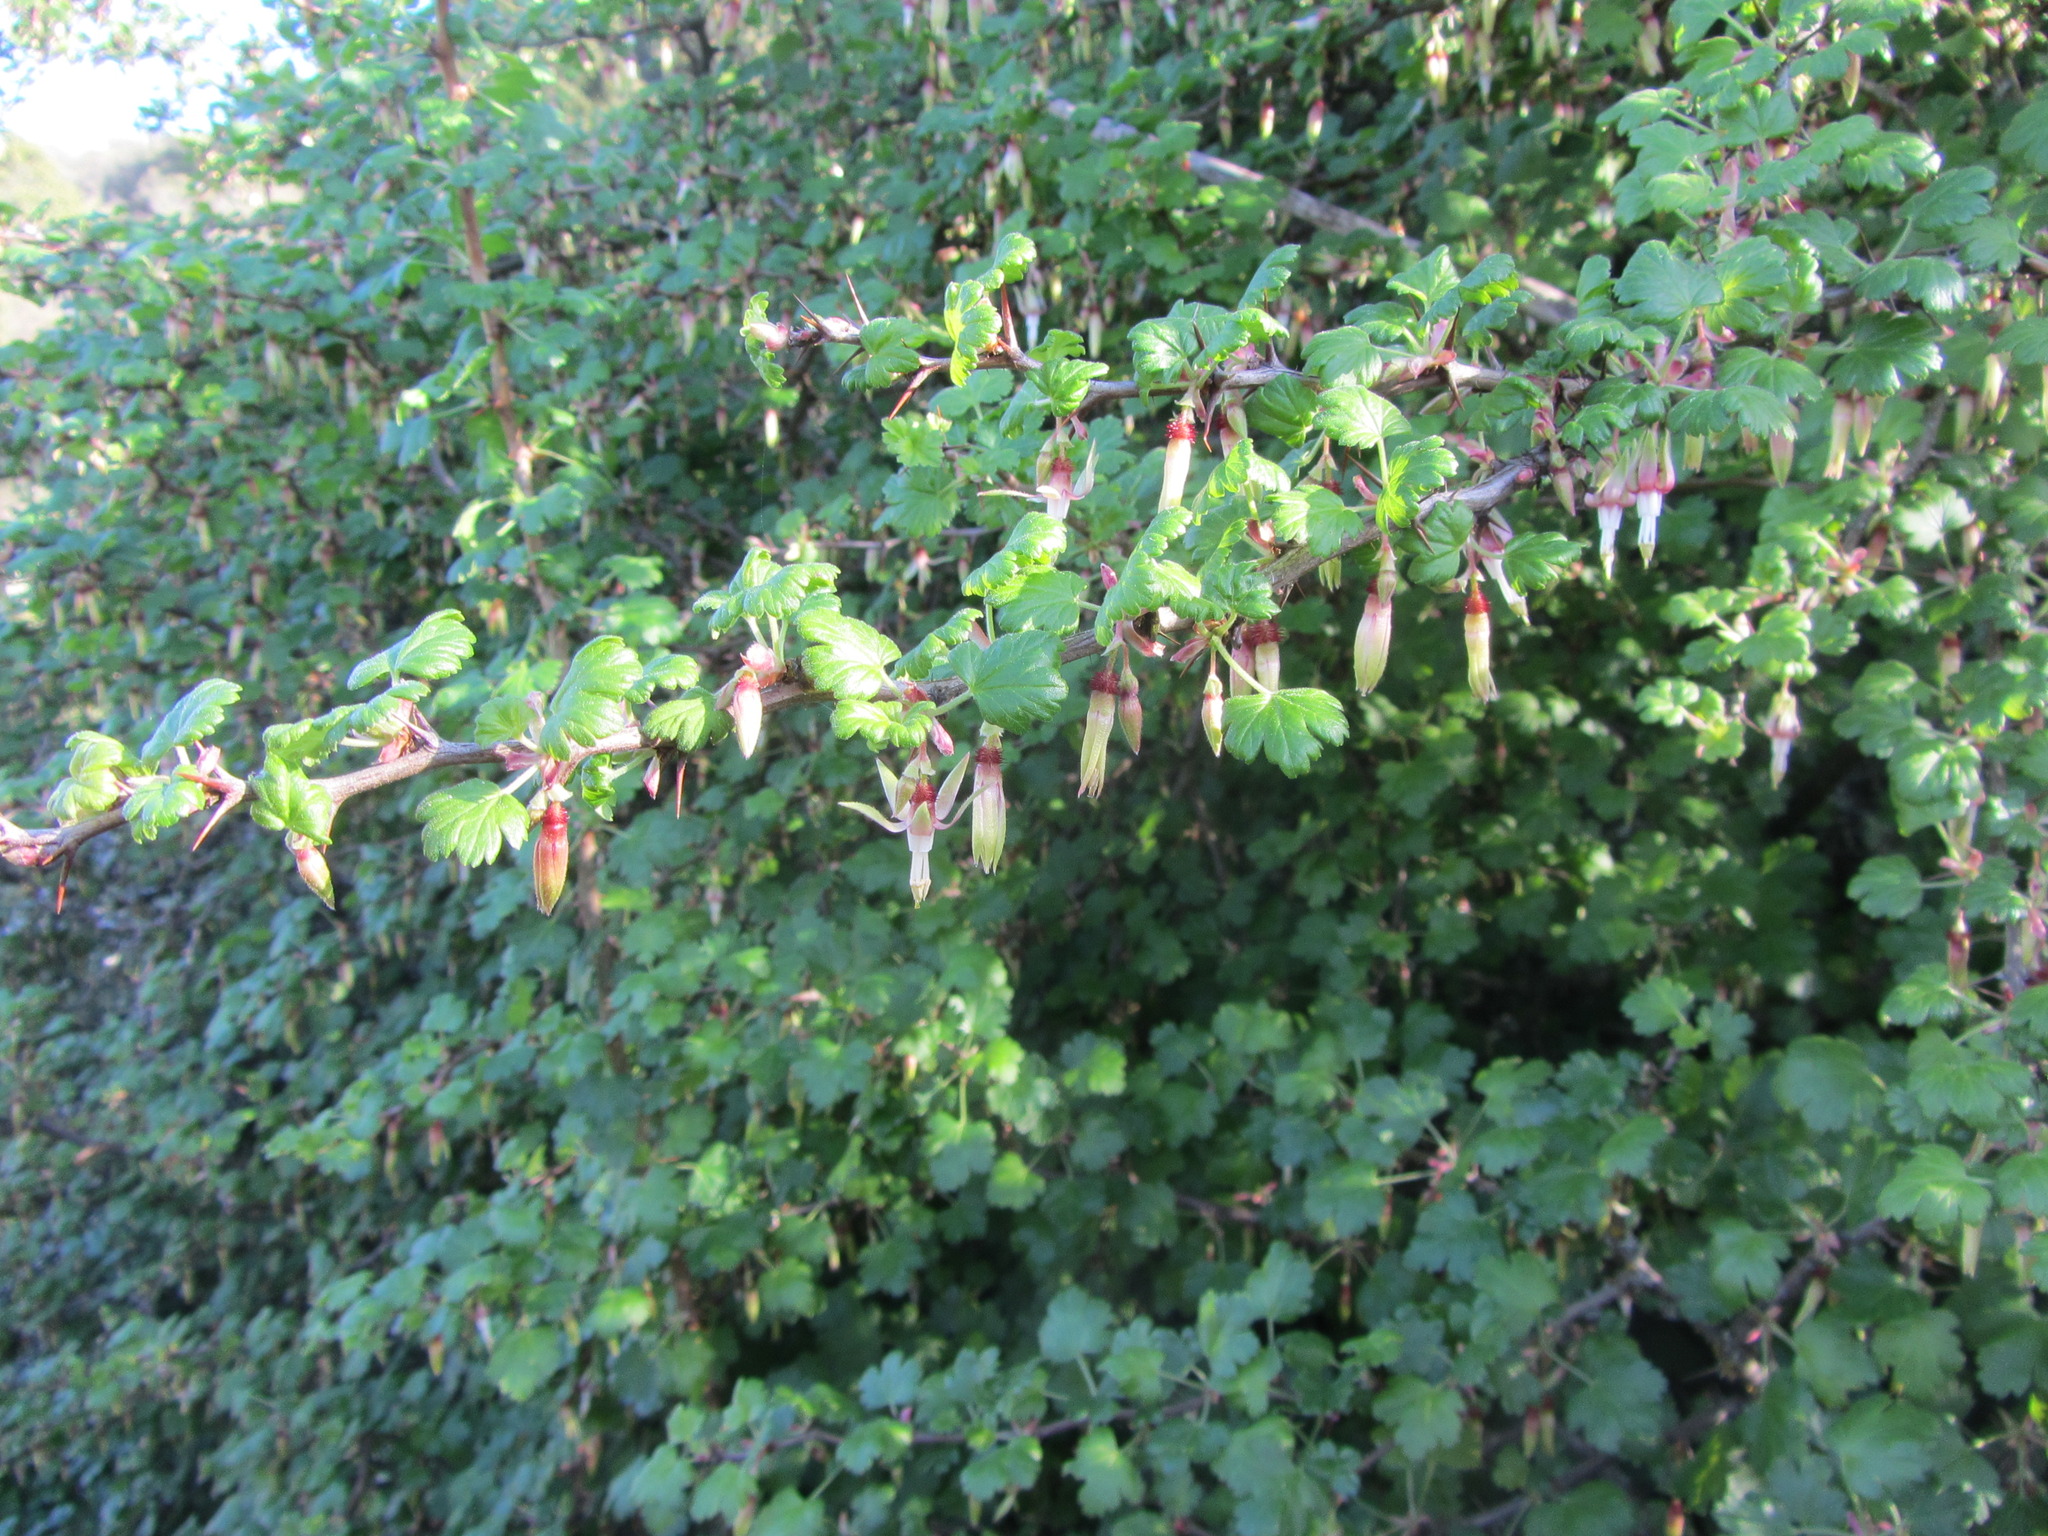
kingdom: Plantae
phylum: Tracheophyta
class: Magnoliopsida
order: Saxifragales
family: Grossulariaceae
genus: Ribes
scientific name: Ribes californicum
